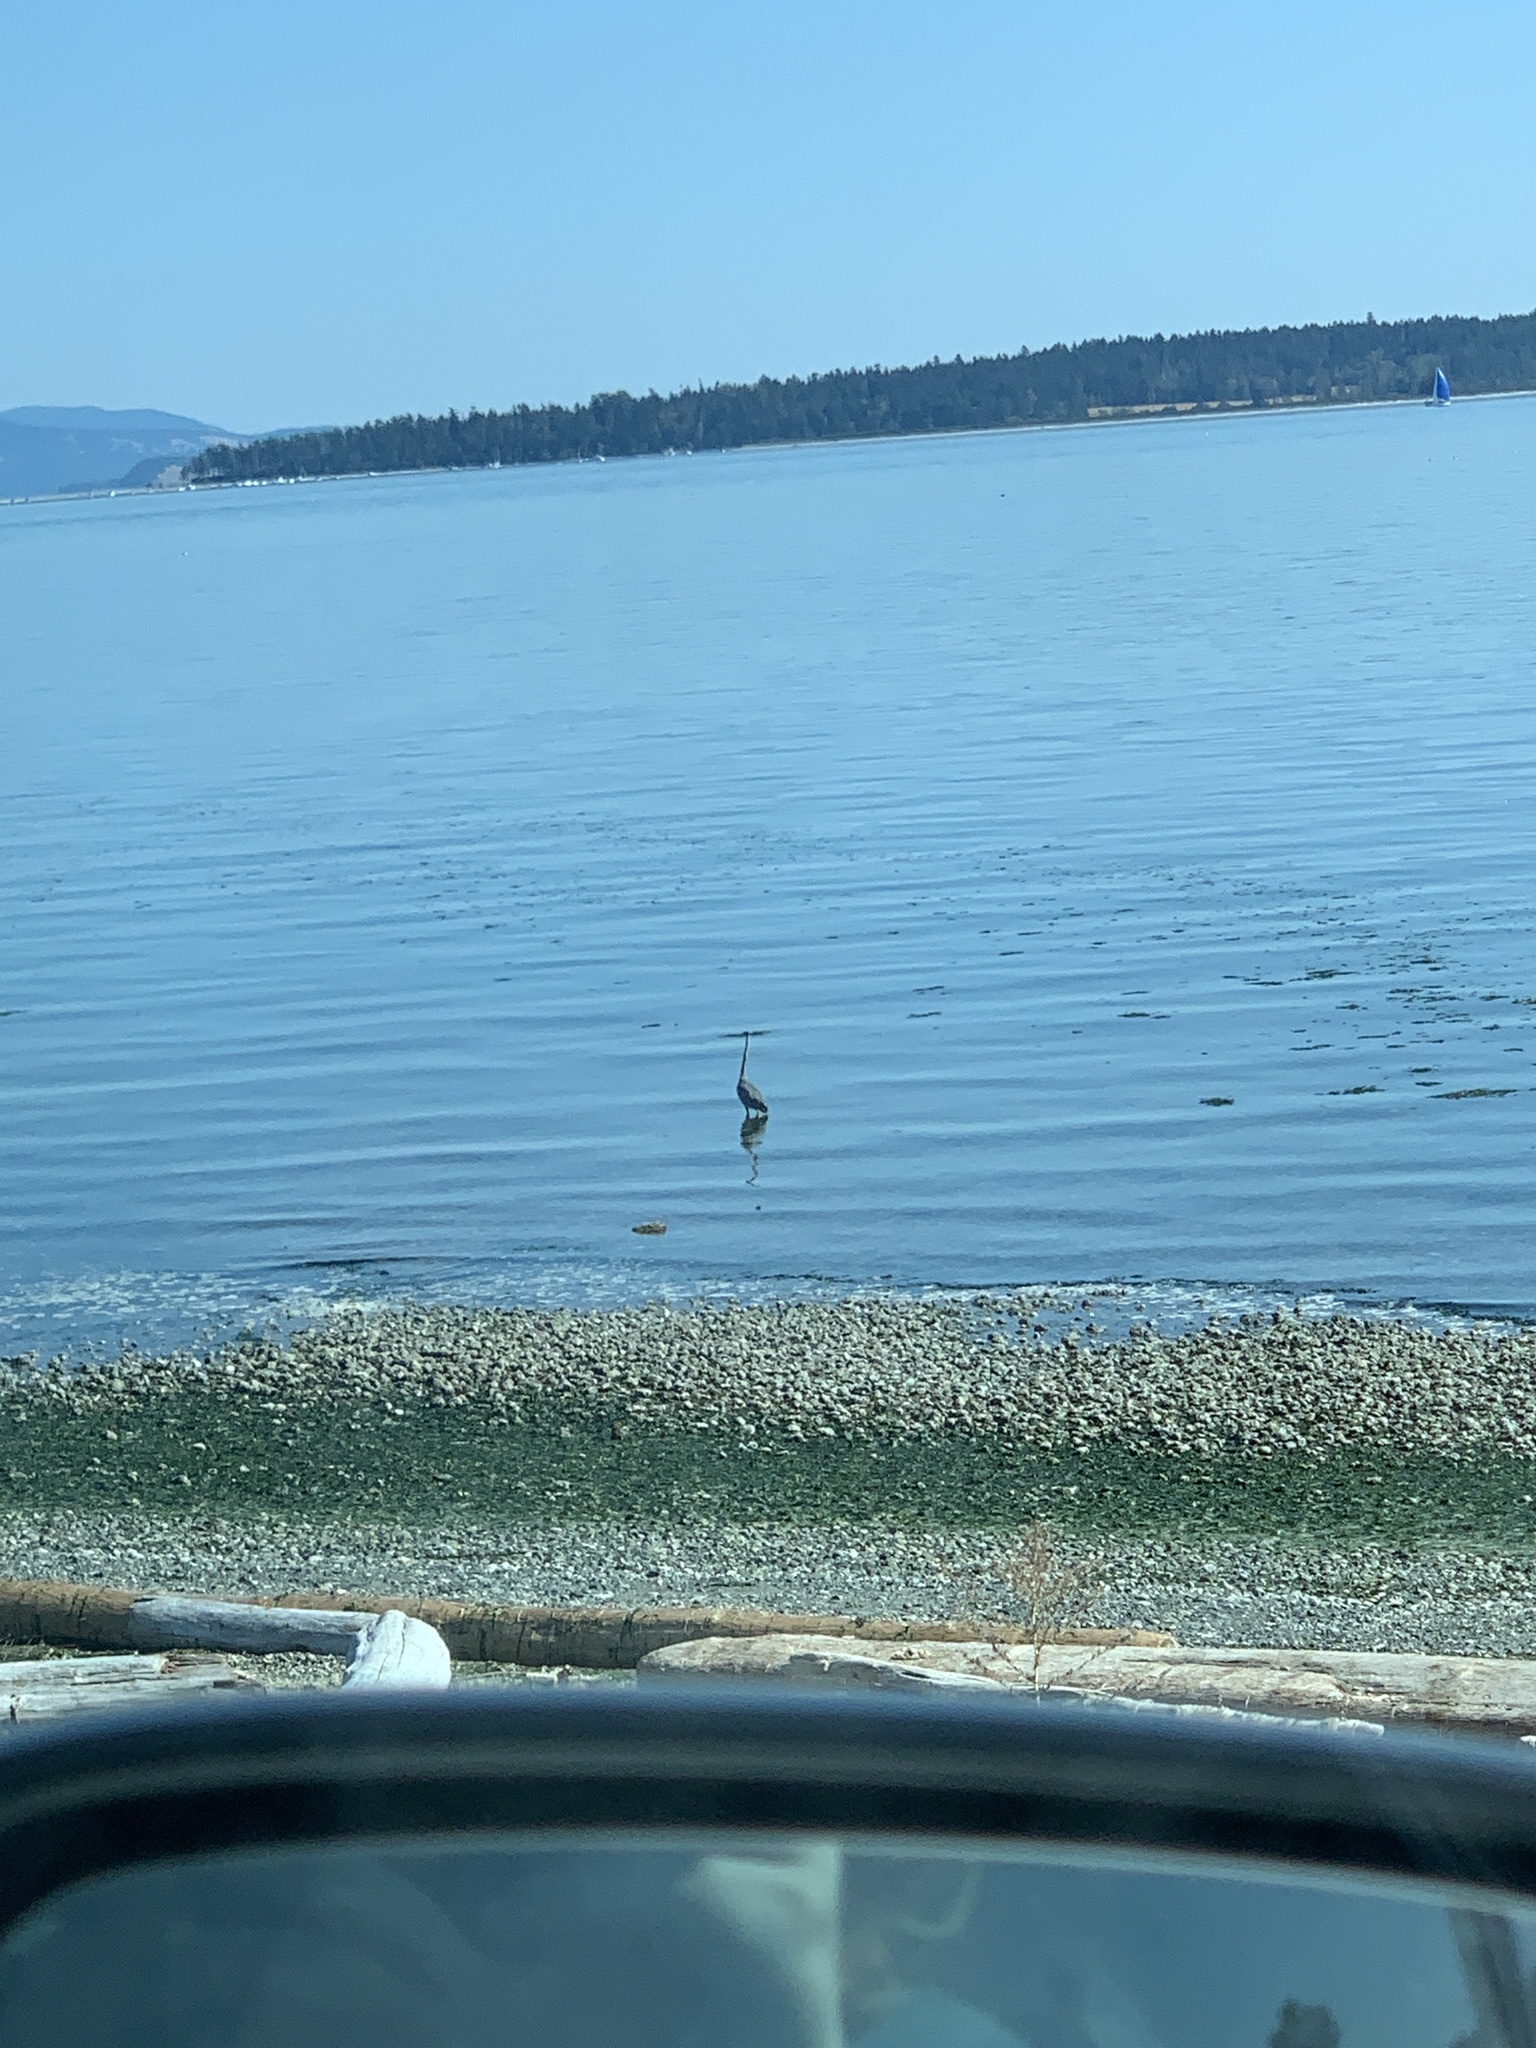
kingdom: Animalia
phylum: Chordata
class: Aves
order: Pelecaniformes
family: Ardeidae
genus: Ardea
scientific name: Ardea herodias
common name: Great blue heron
